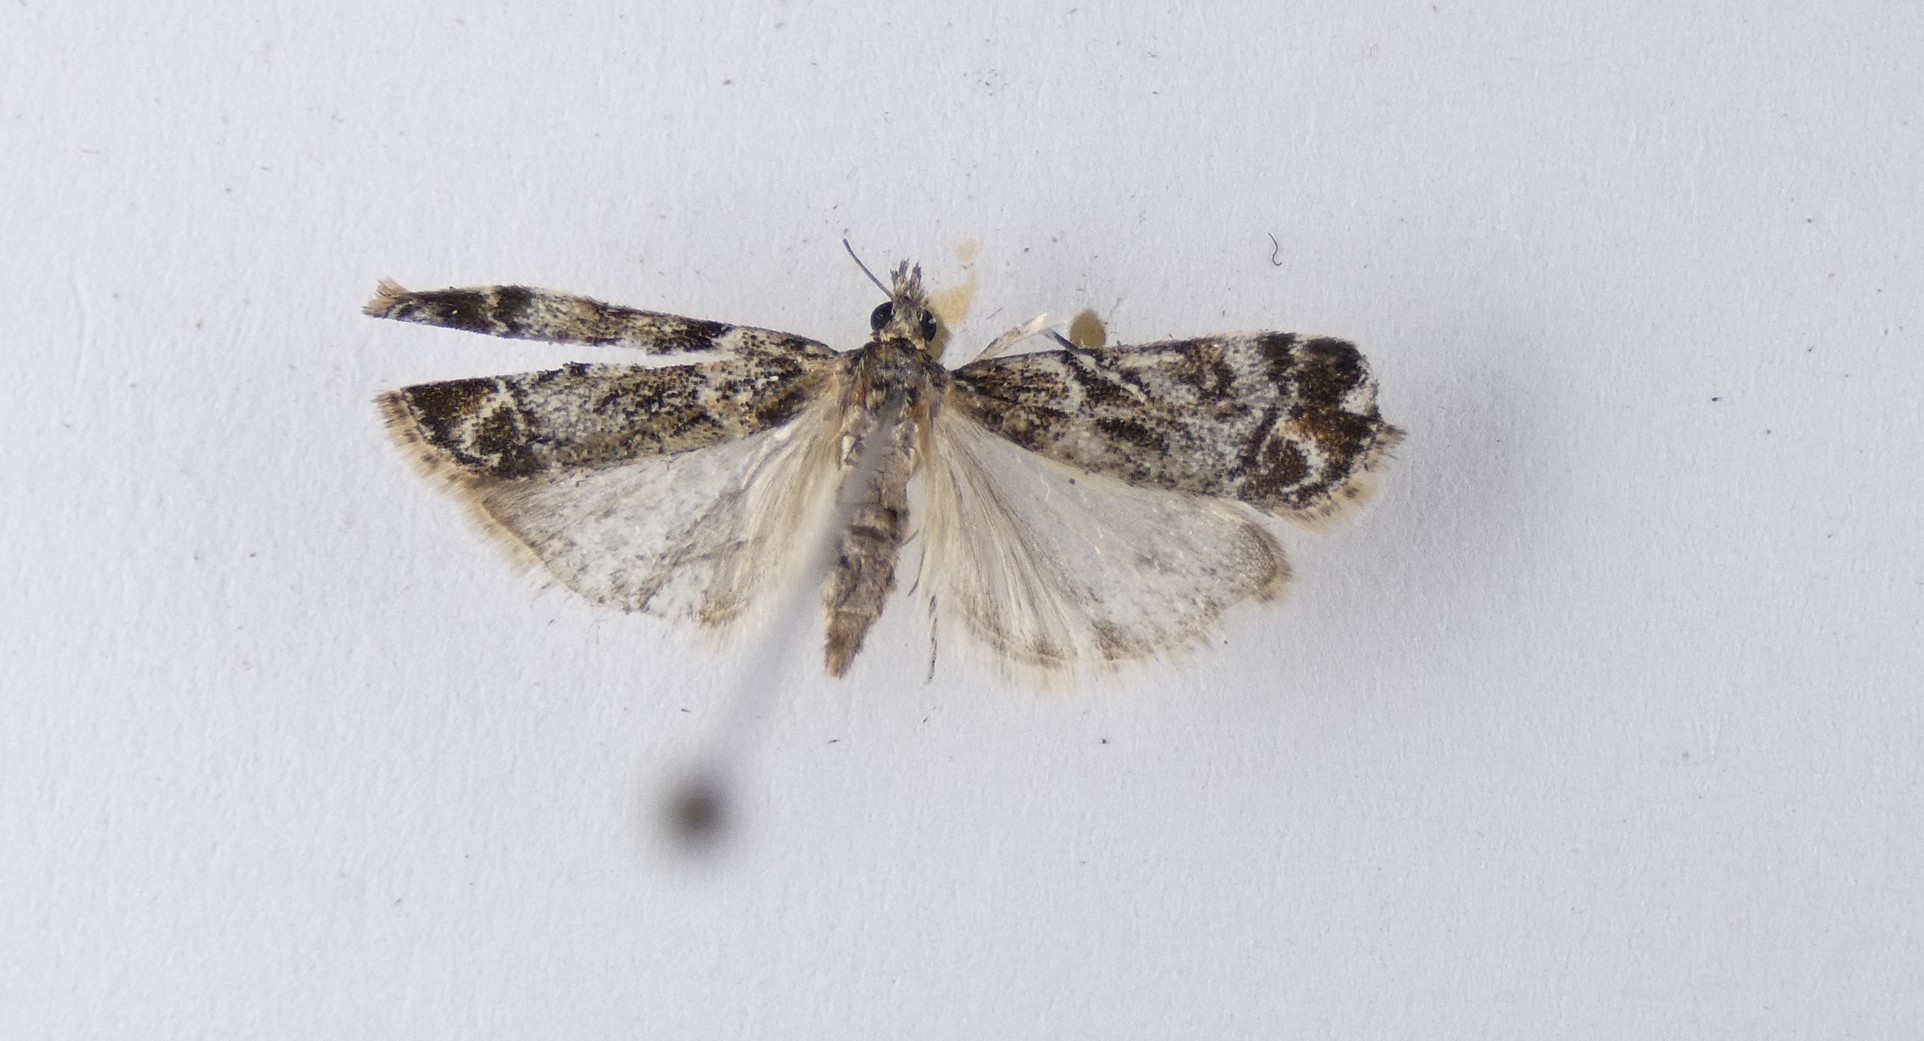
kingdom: Animalia
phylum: Arthropoda
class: Insecta
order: Lepidoptera
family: Crambidae
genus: Eudonia
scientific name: Eudonia minualis
